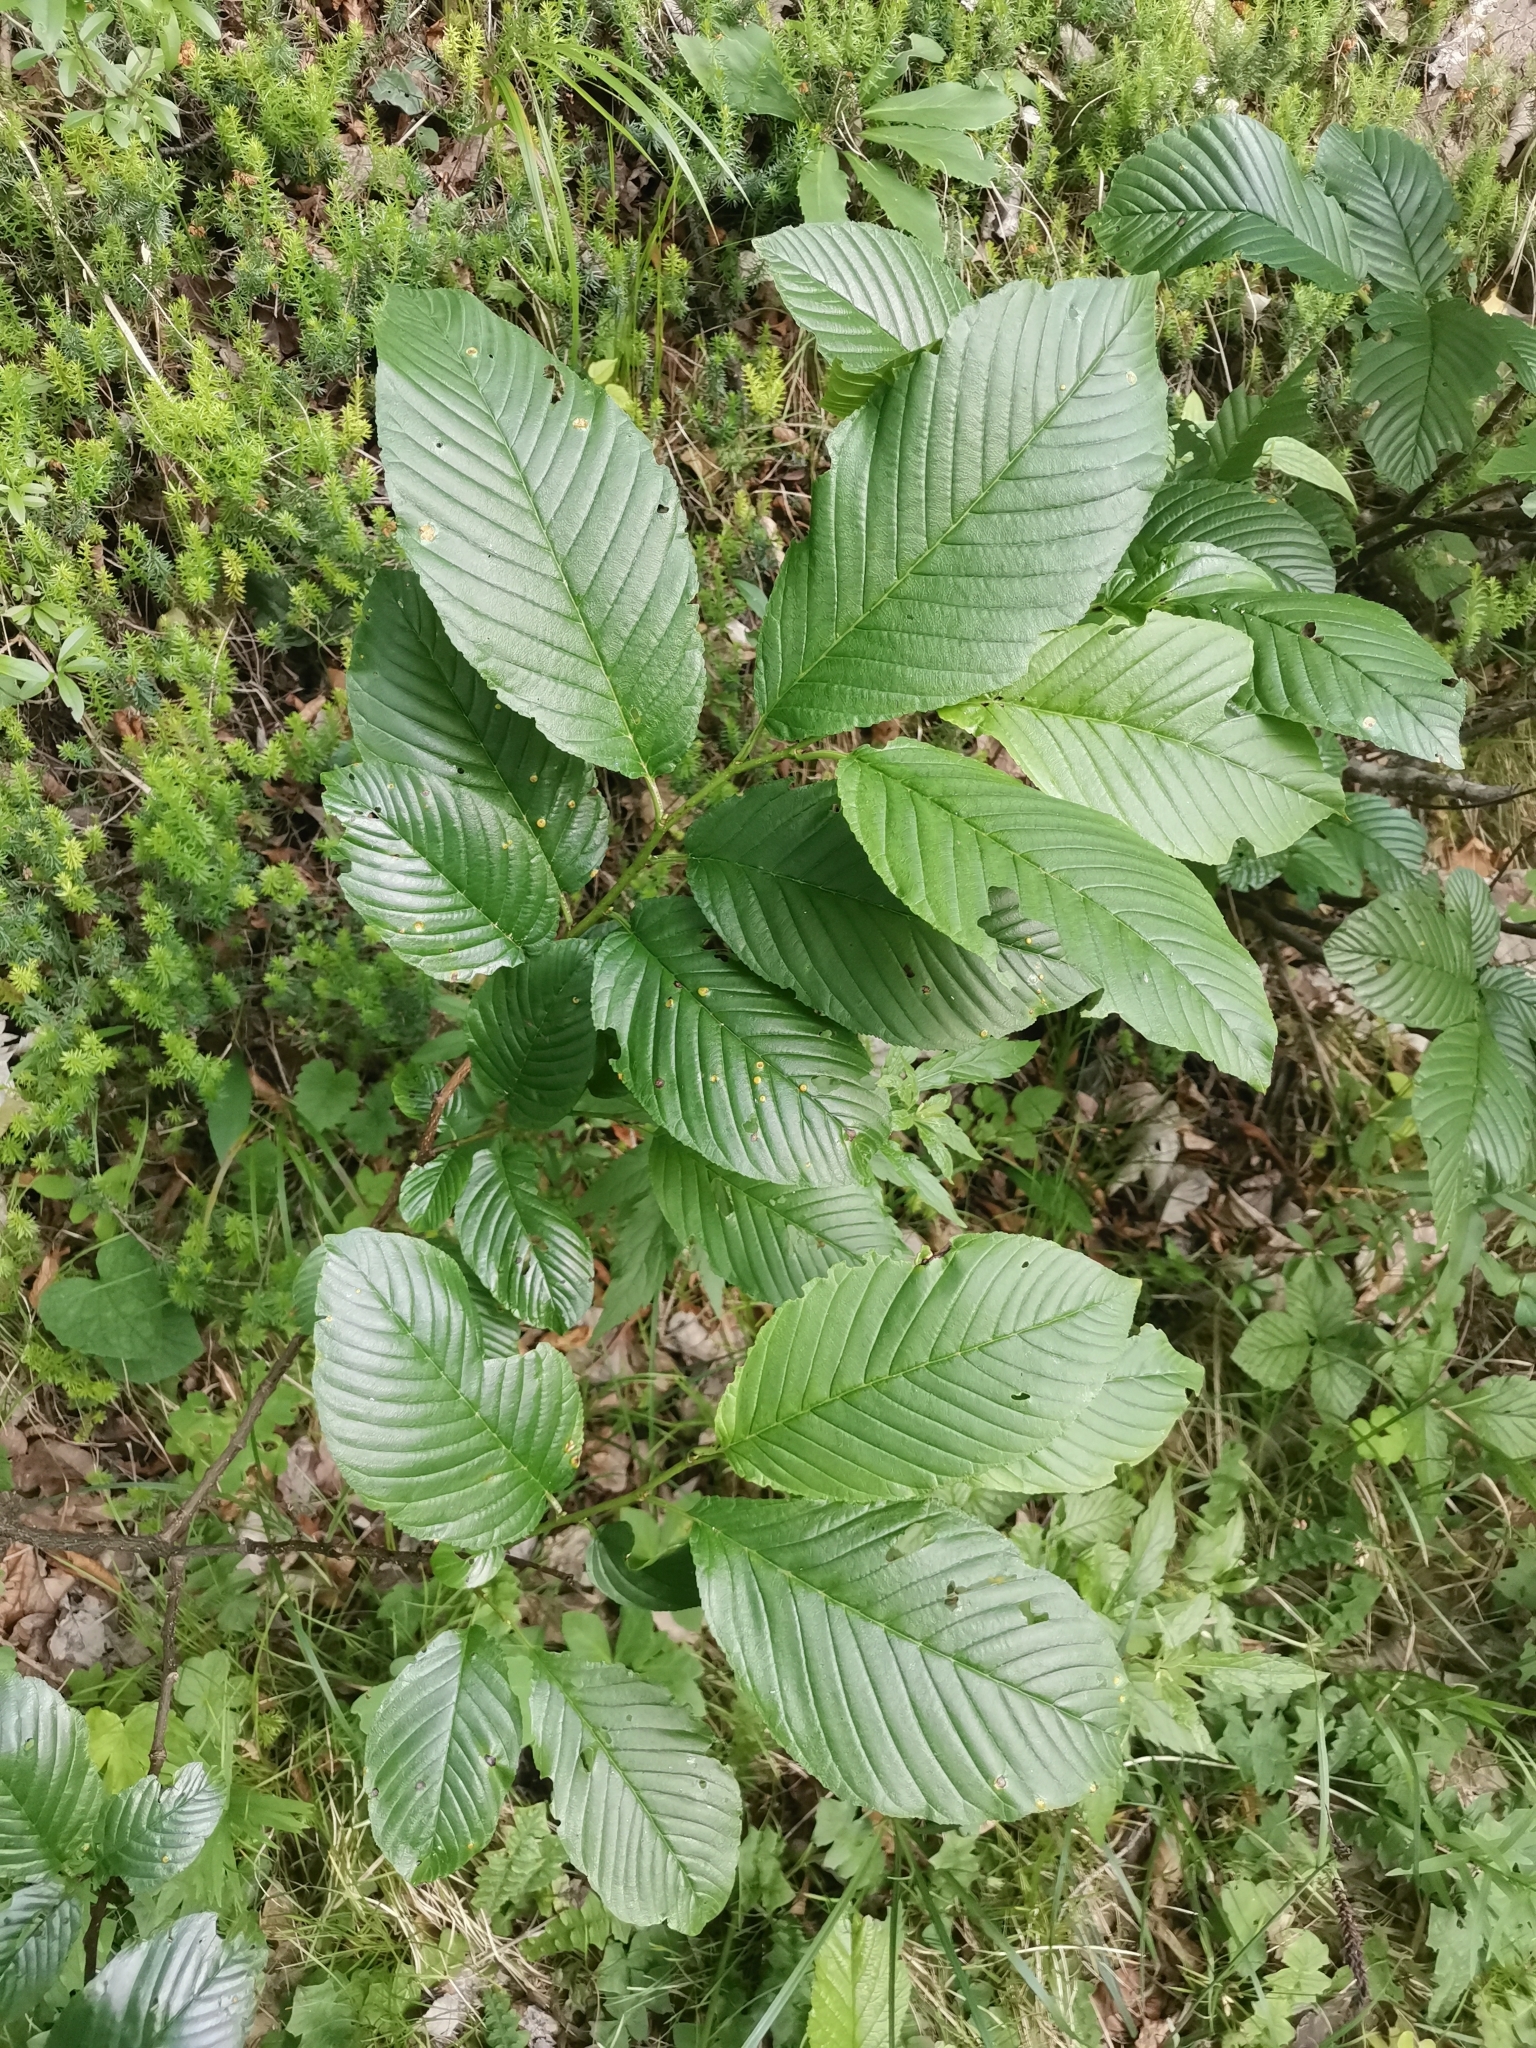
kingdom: Plantae
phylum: Tracheophyta
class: Magnoliopsida
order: Rosales
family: Rhamnaceae
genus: Atadinus
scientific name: Atadinus fallax
